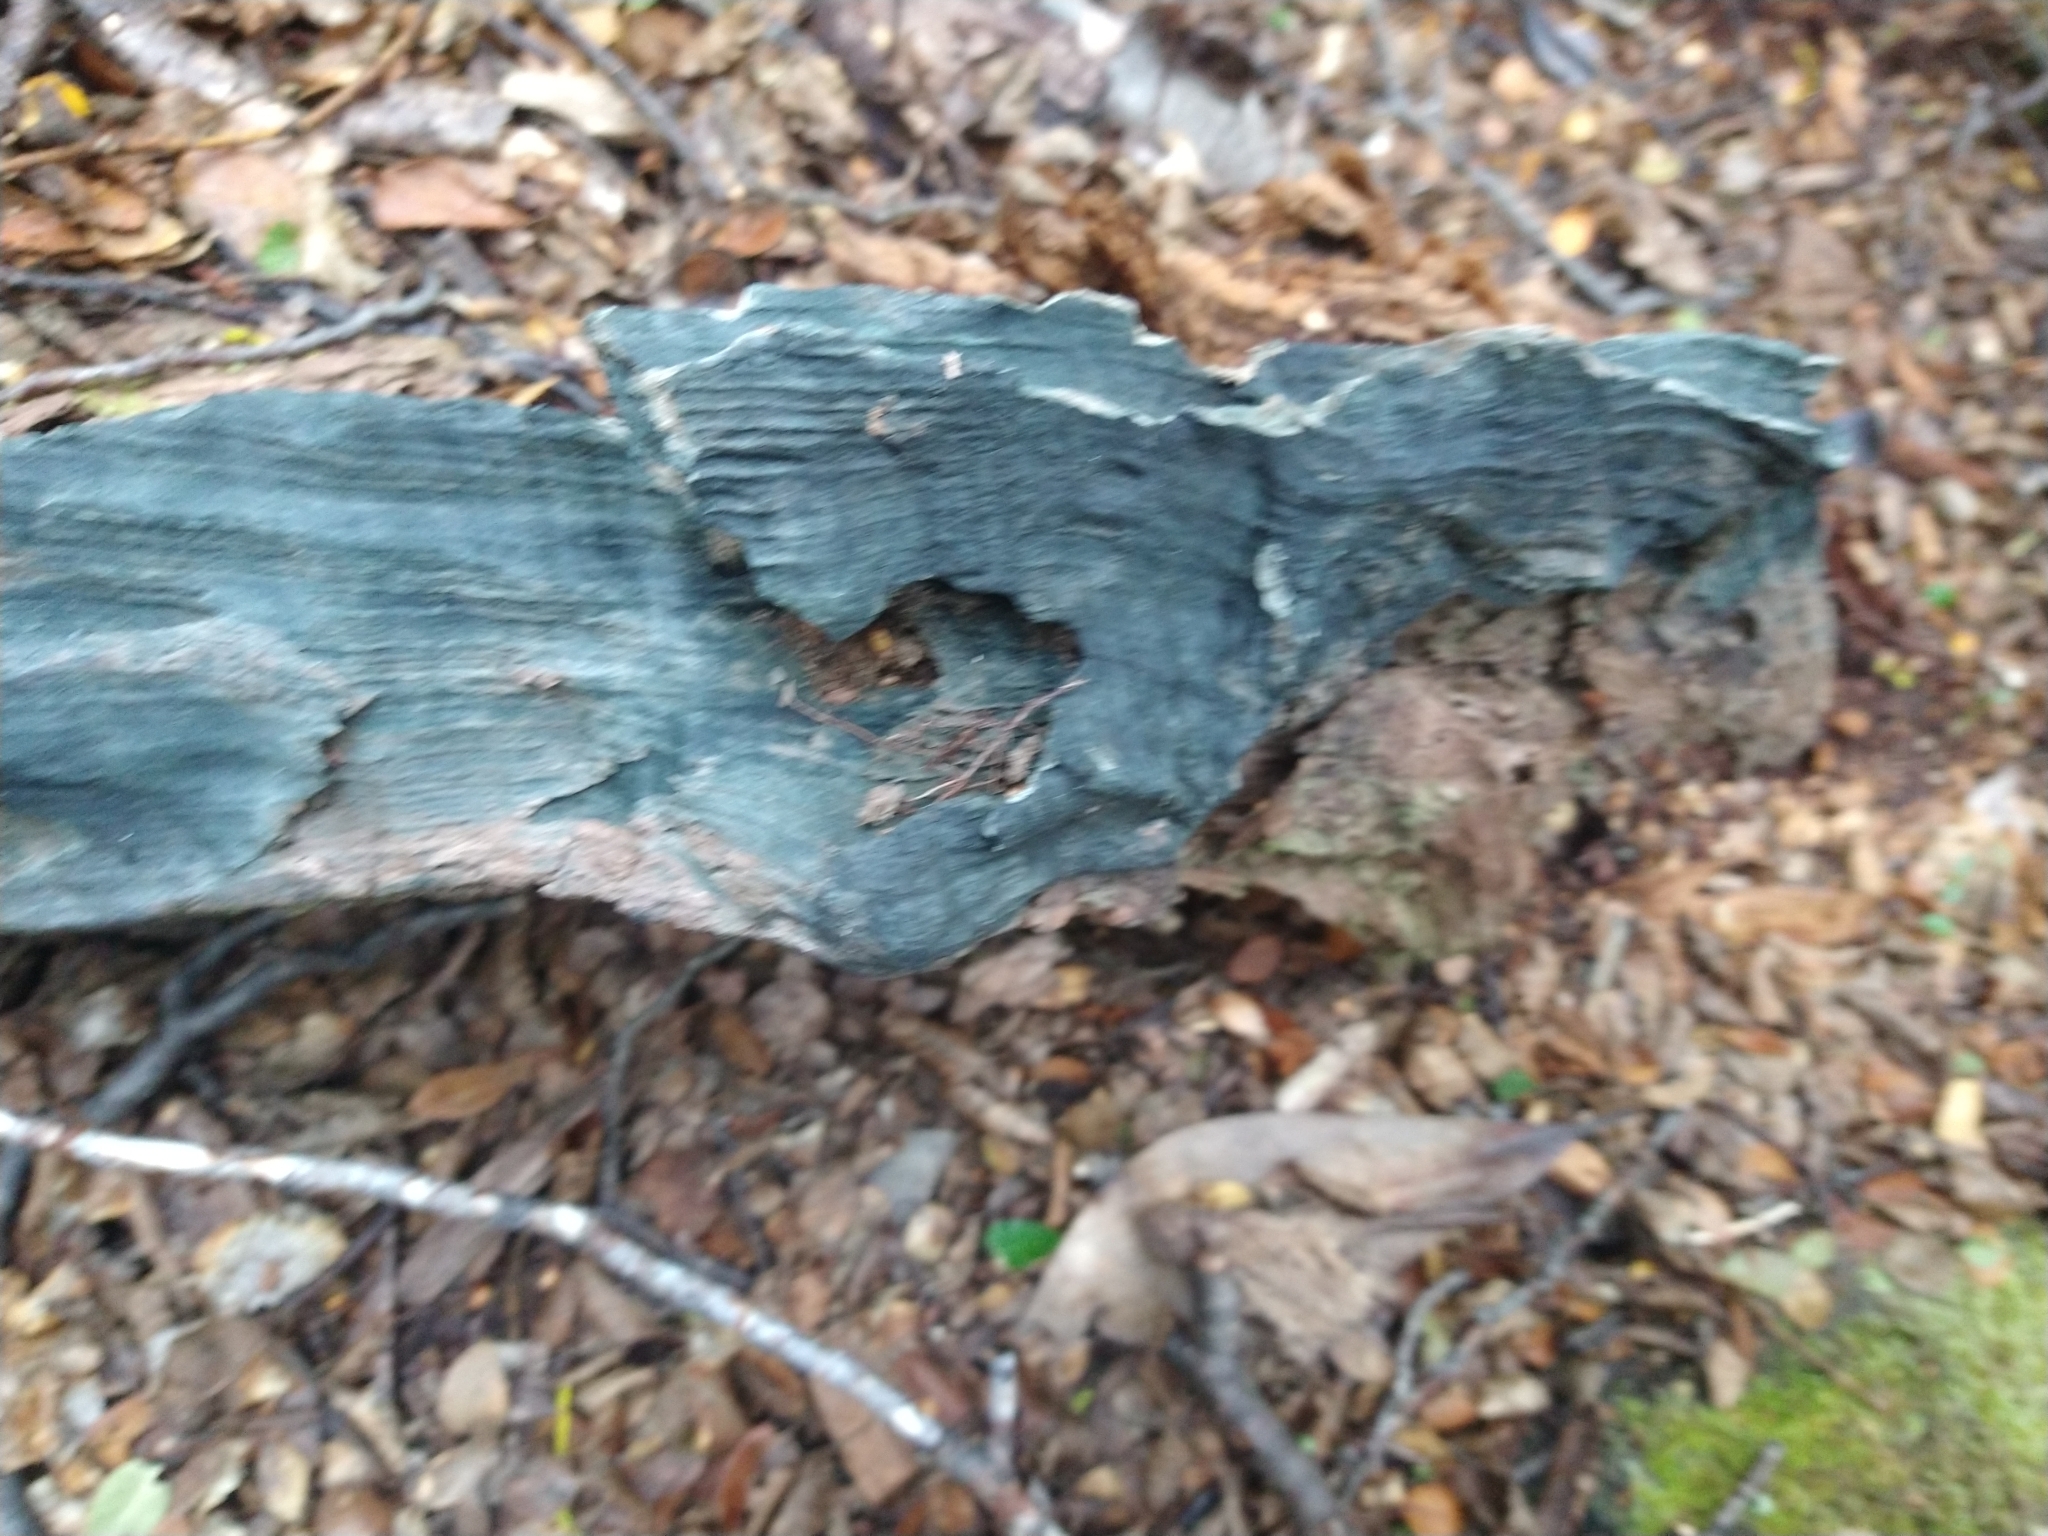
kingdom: Fungi
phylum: Ascomycota
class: Leotiomycetes
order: Helotiales
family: Chlorociboriaceae
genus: Chlorociboria
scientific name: Chlorociboria aeruginascens
